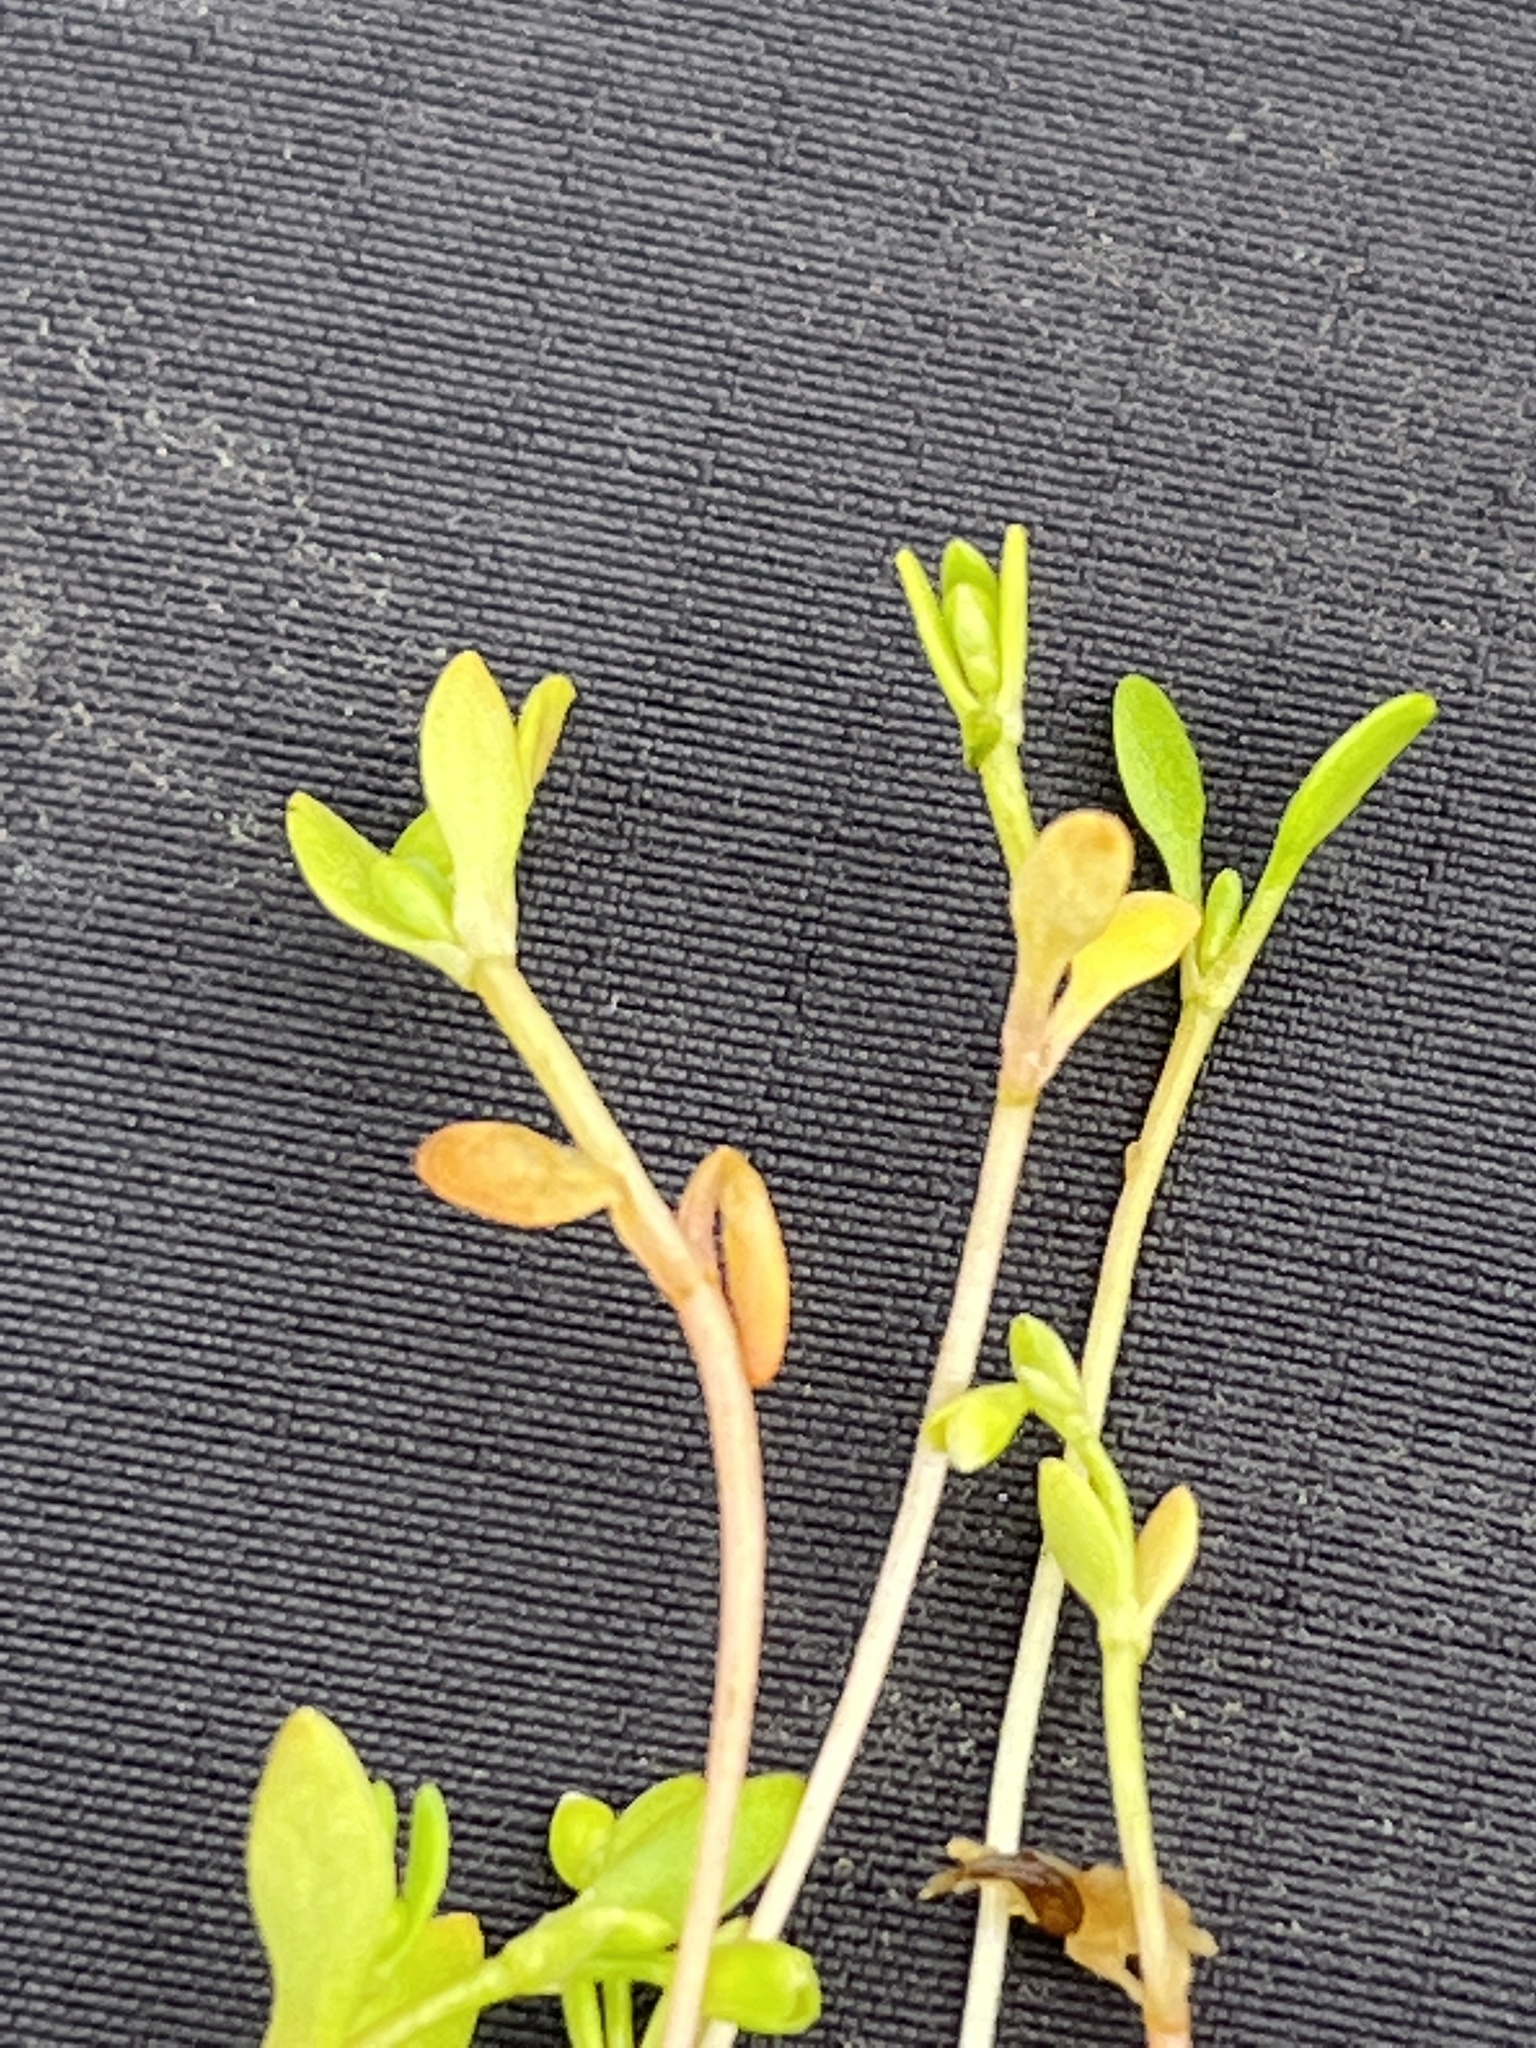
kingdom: Plantae
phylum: Tracheophyta
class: Magnoliopsida
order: Caryophyllales
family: Montiaceae
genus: Montia
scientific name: Montia fontana
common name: Blinks
